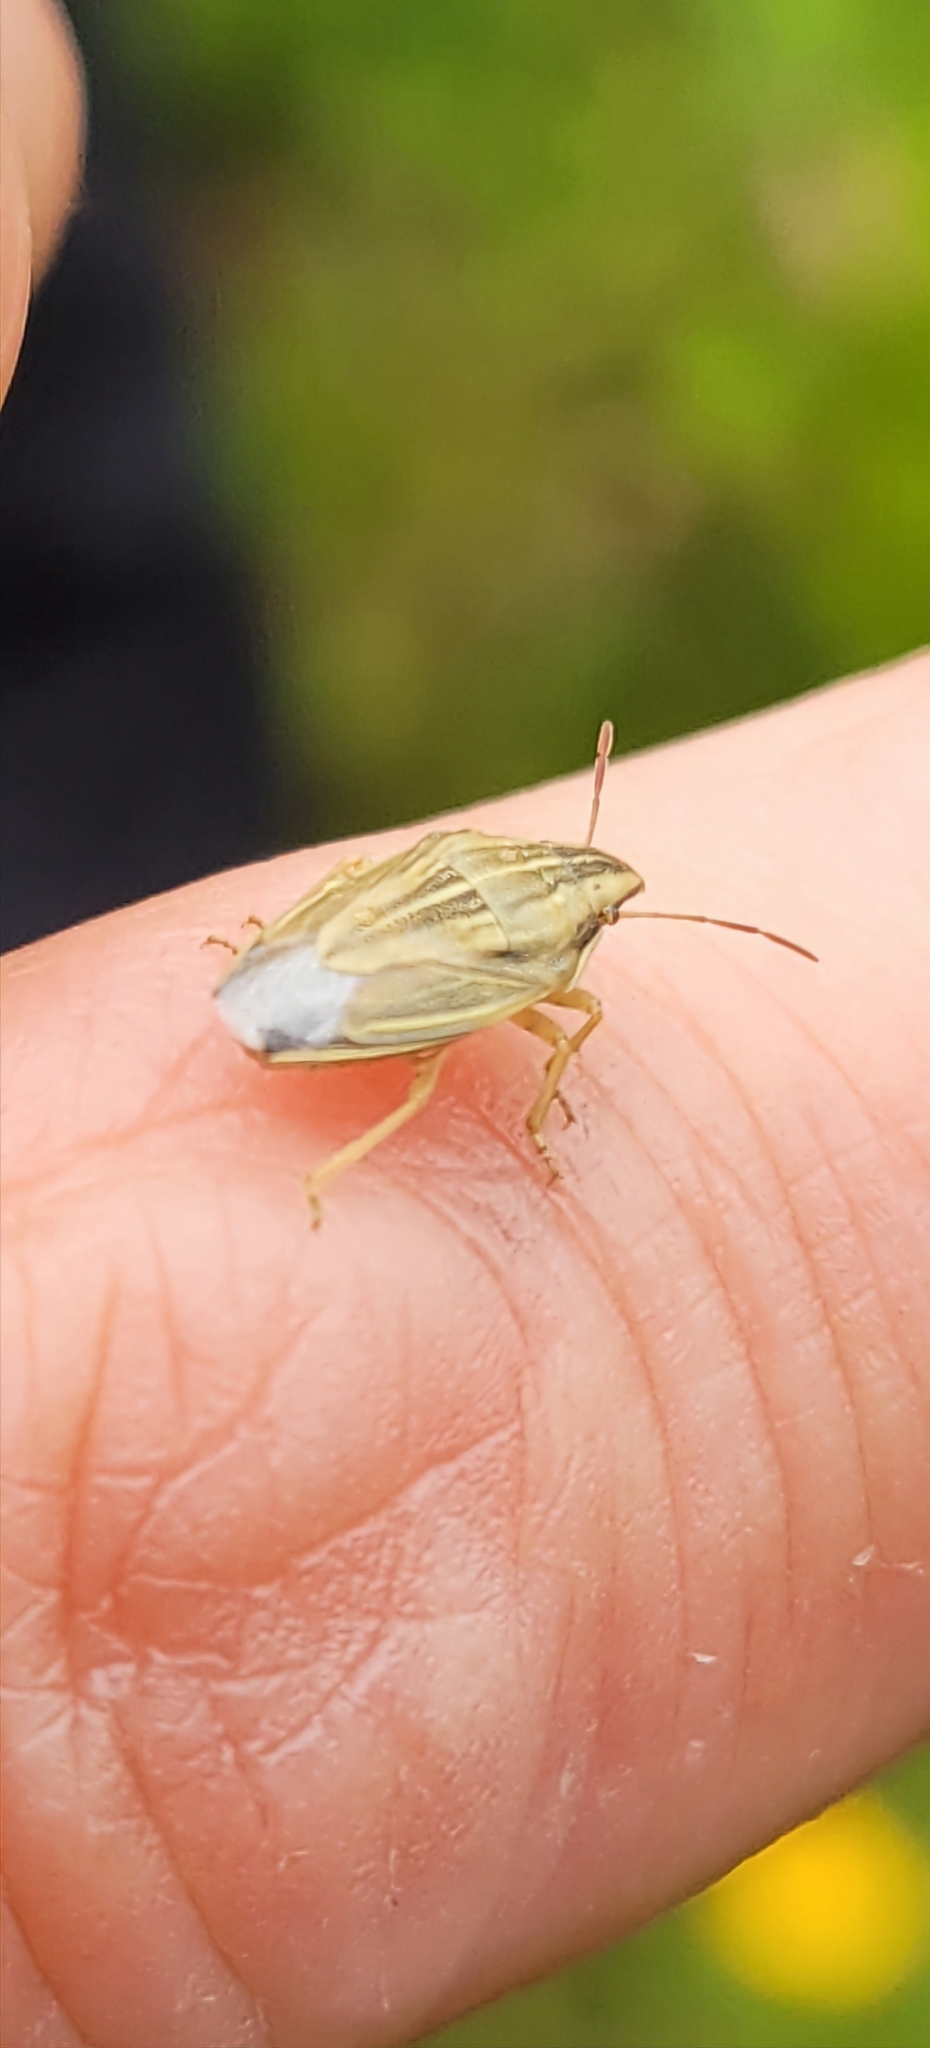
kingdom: Animalia
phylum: Arthropoda
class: Insecta
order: Hemiptera
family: Pentatomidae
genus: Aelia
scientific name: Aelia acuminata
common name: Bishop's mitre
